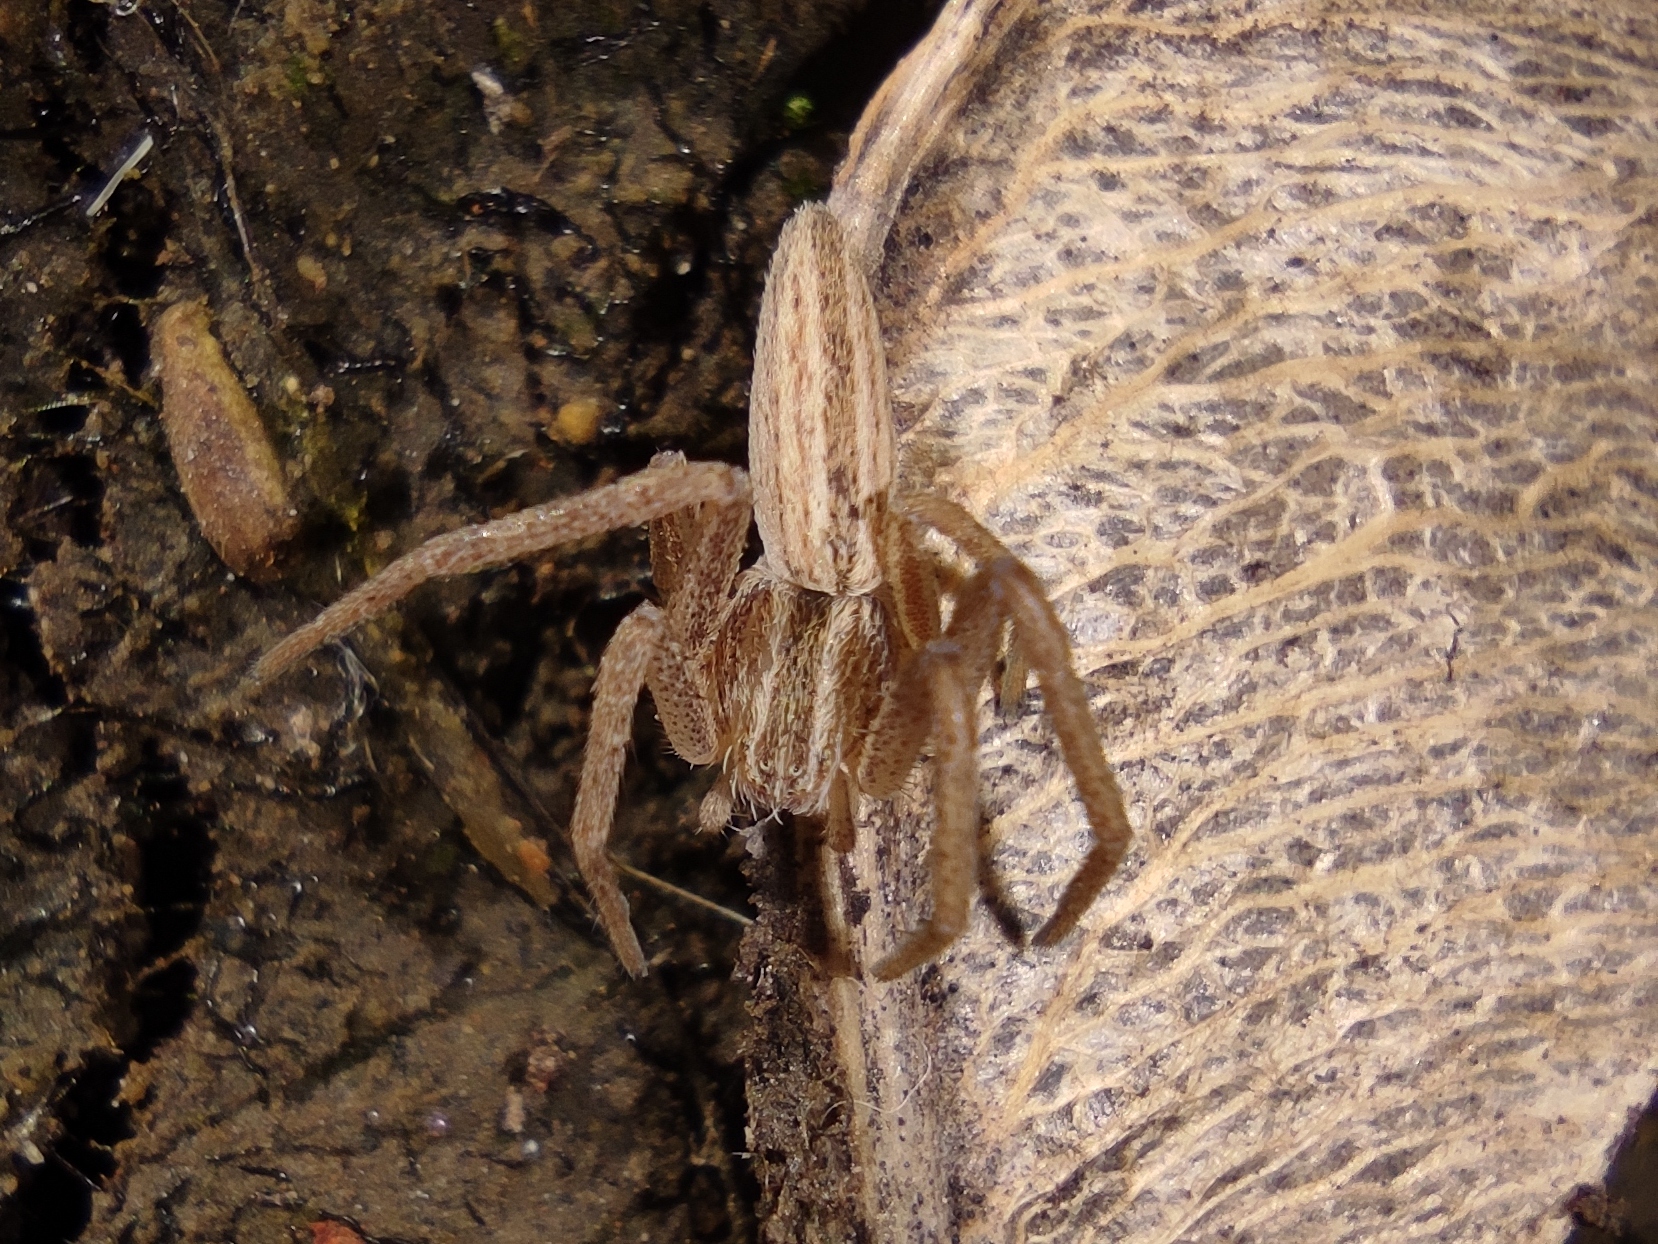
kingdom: Animalia
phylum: Arthropoda
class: Arachnida
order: Araneae
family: Philodromidae
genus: Tibellus
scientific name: Tibellus
